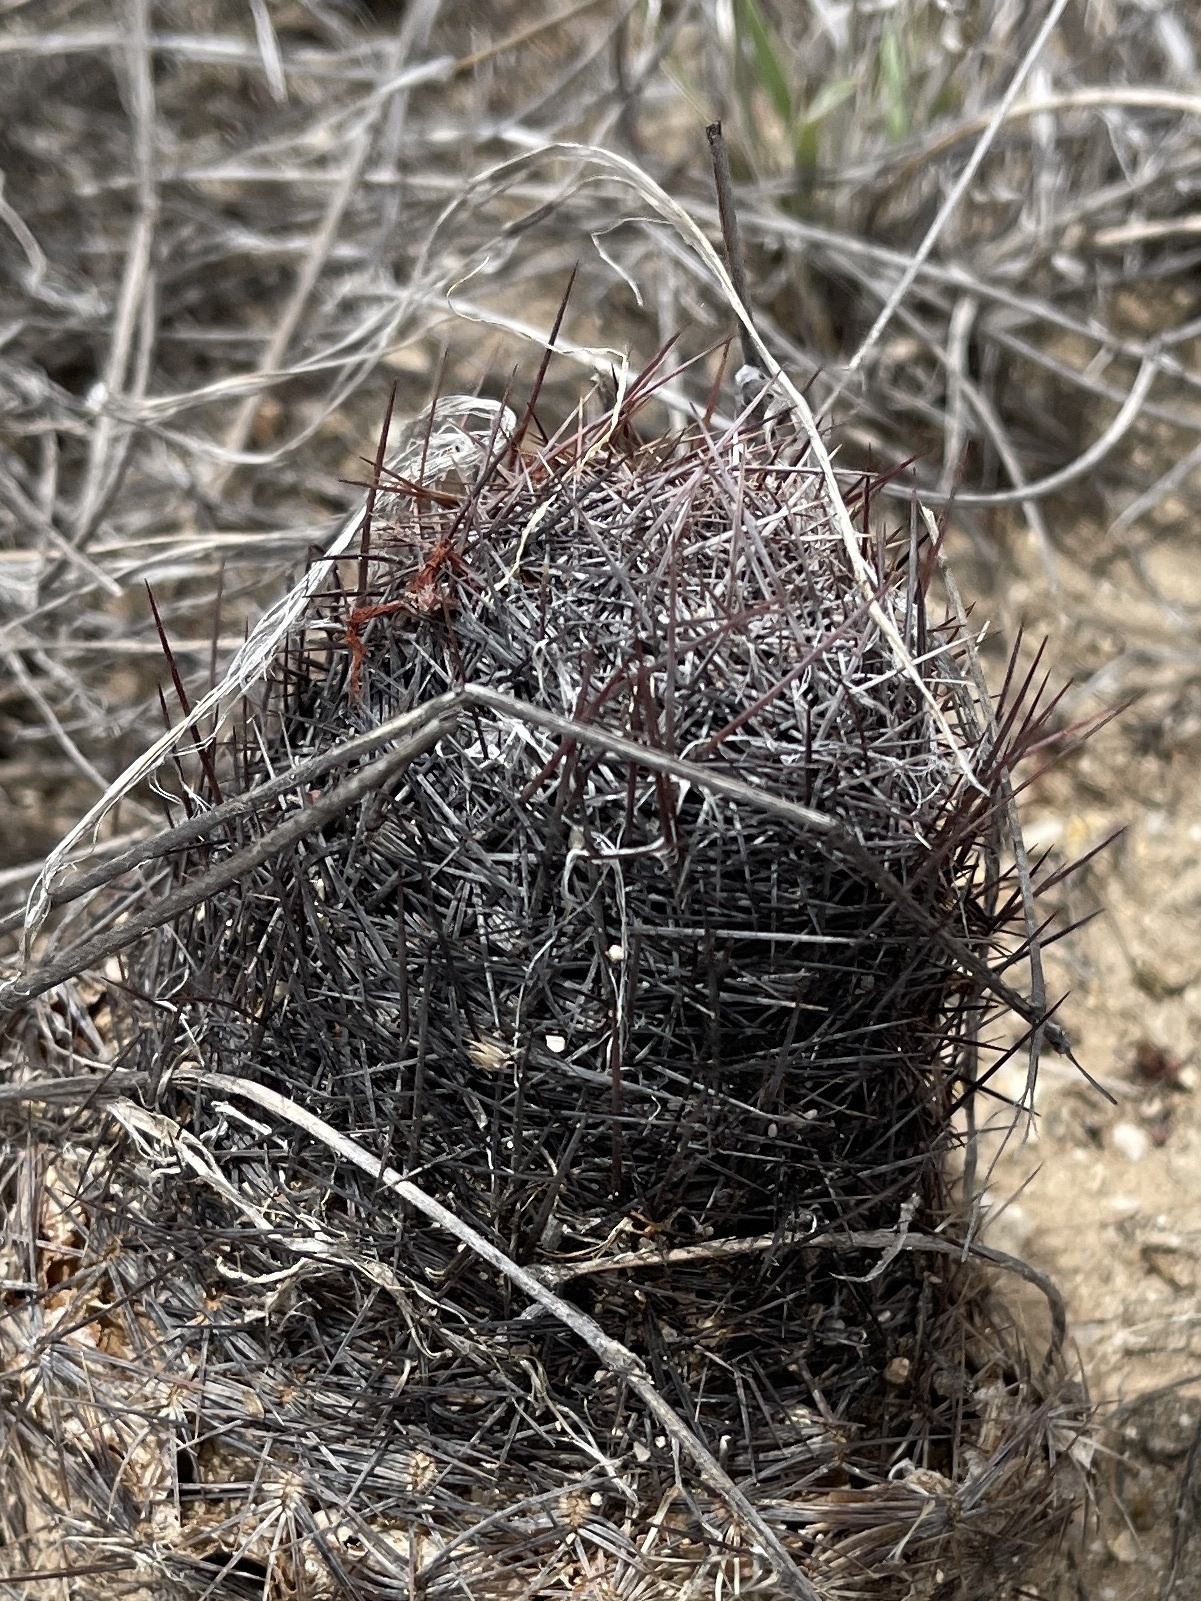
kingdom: Plantae
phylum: Tracheophyta
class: Magnoliopsida
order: Caryophyllales
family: Cactaceae
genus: Sclerocactus
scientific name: Sclerocactus johnsonii
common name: Eight-spine fishhook cactus
